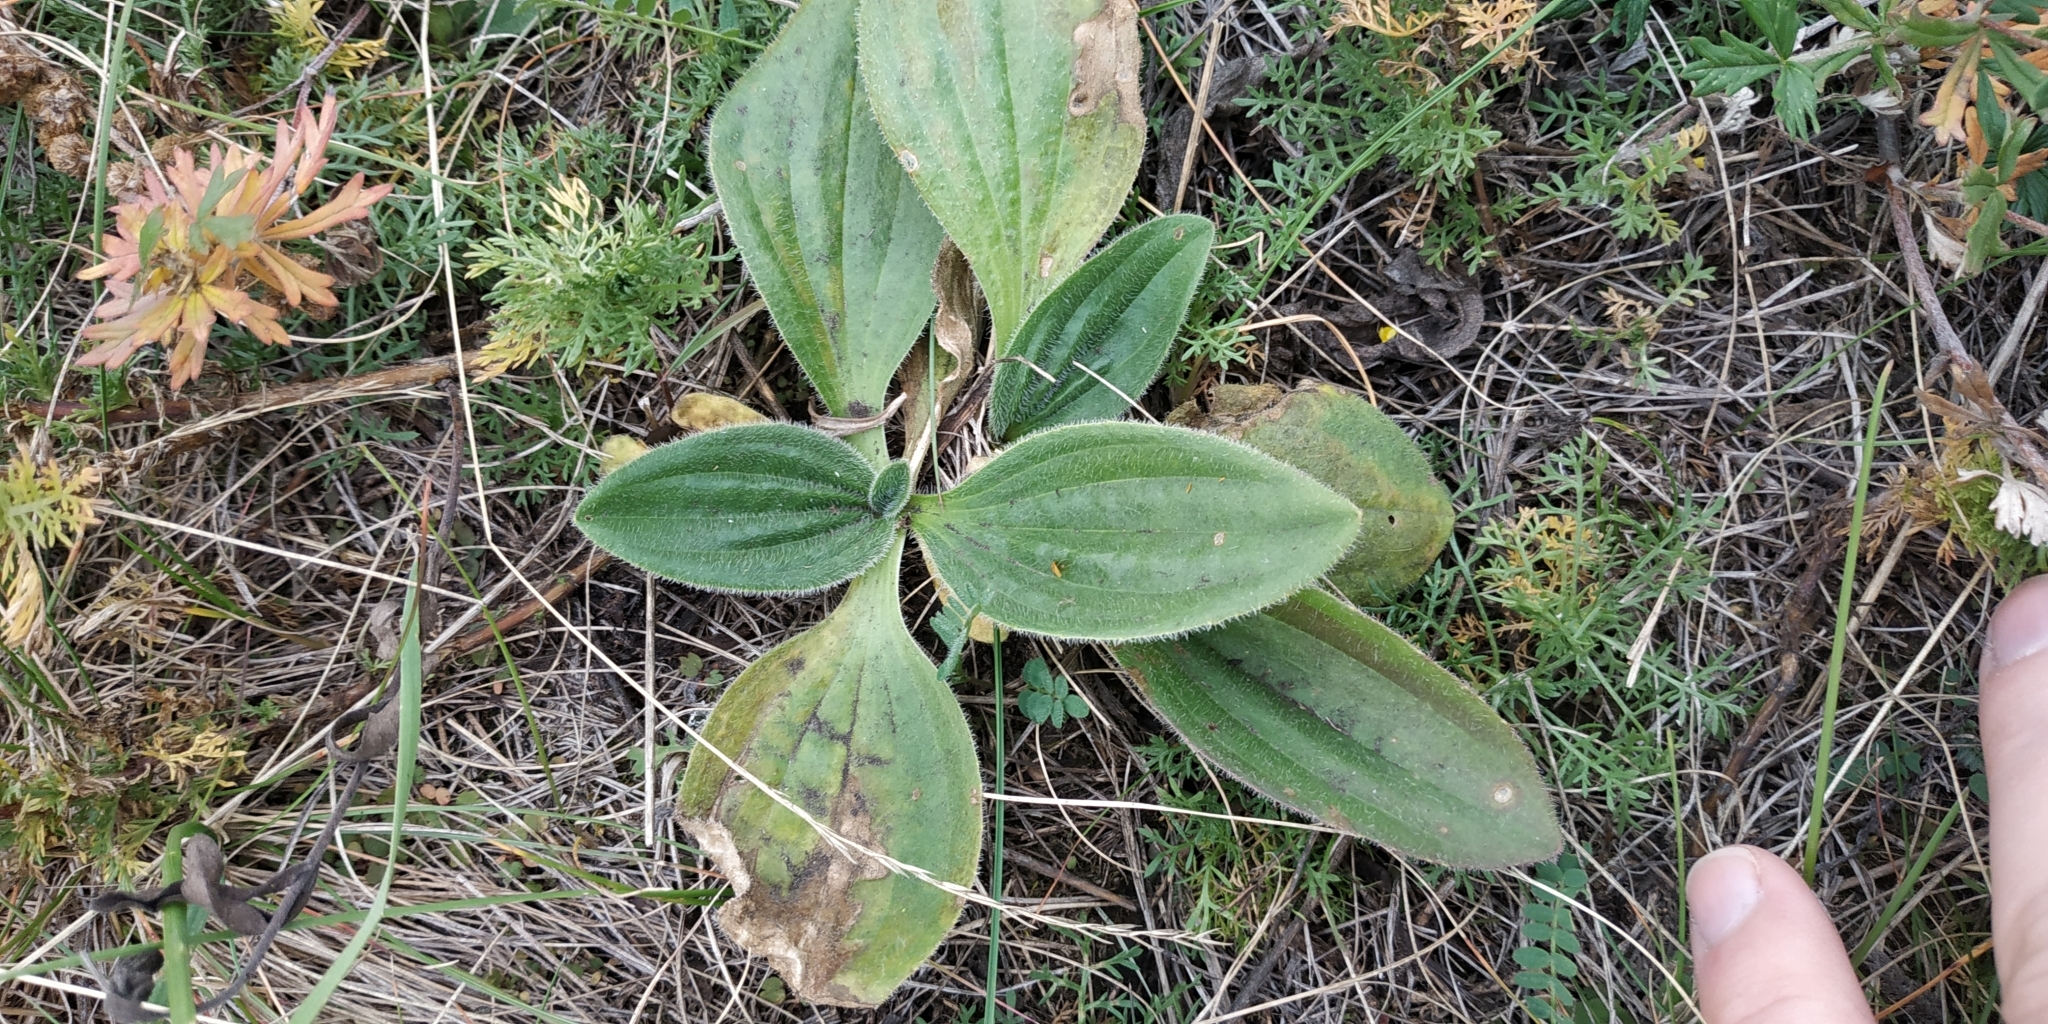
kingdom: Plantae
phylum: Tracheophyta
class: Magnoliopsida
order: Lamiales
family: Plantaginaceae
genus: Plantago
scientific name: Plantago media
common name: Hoary plantain
